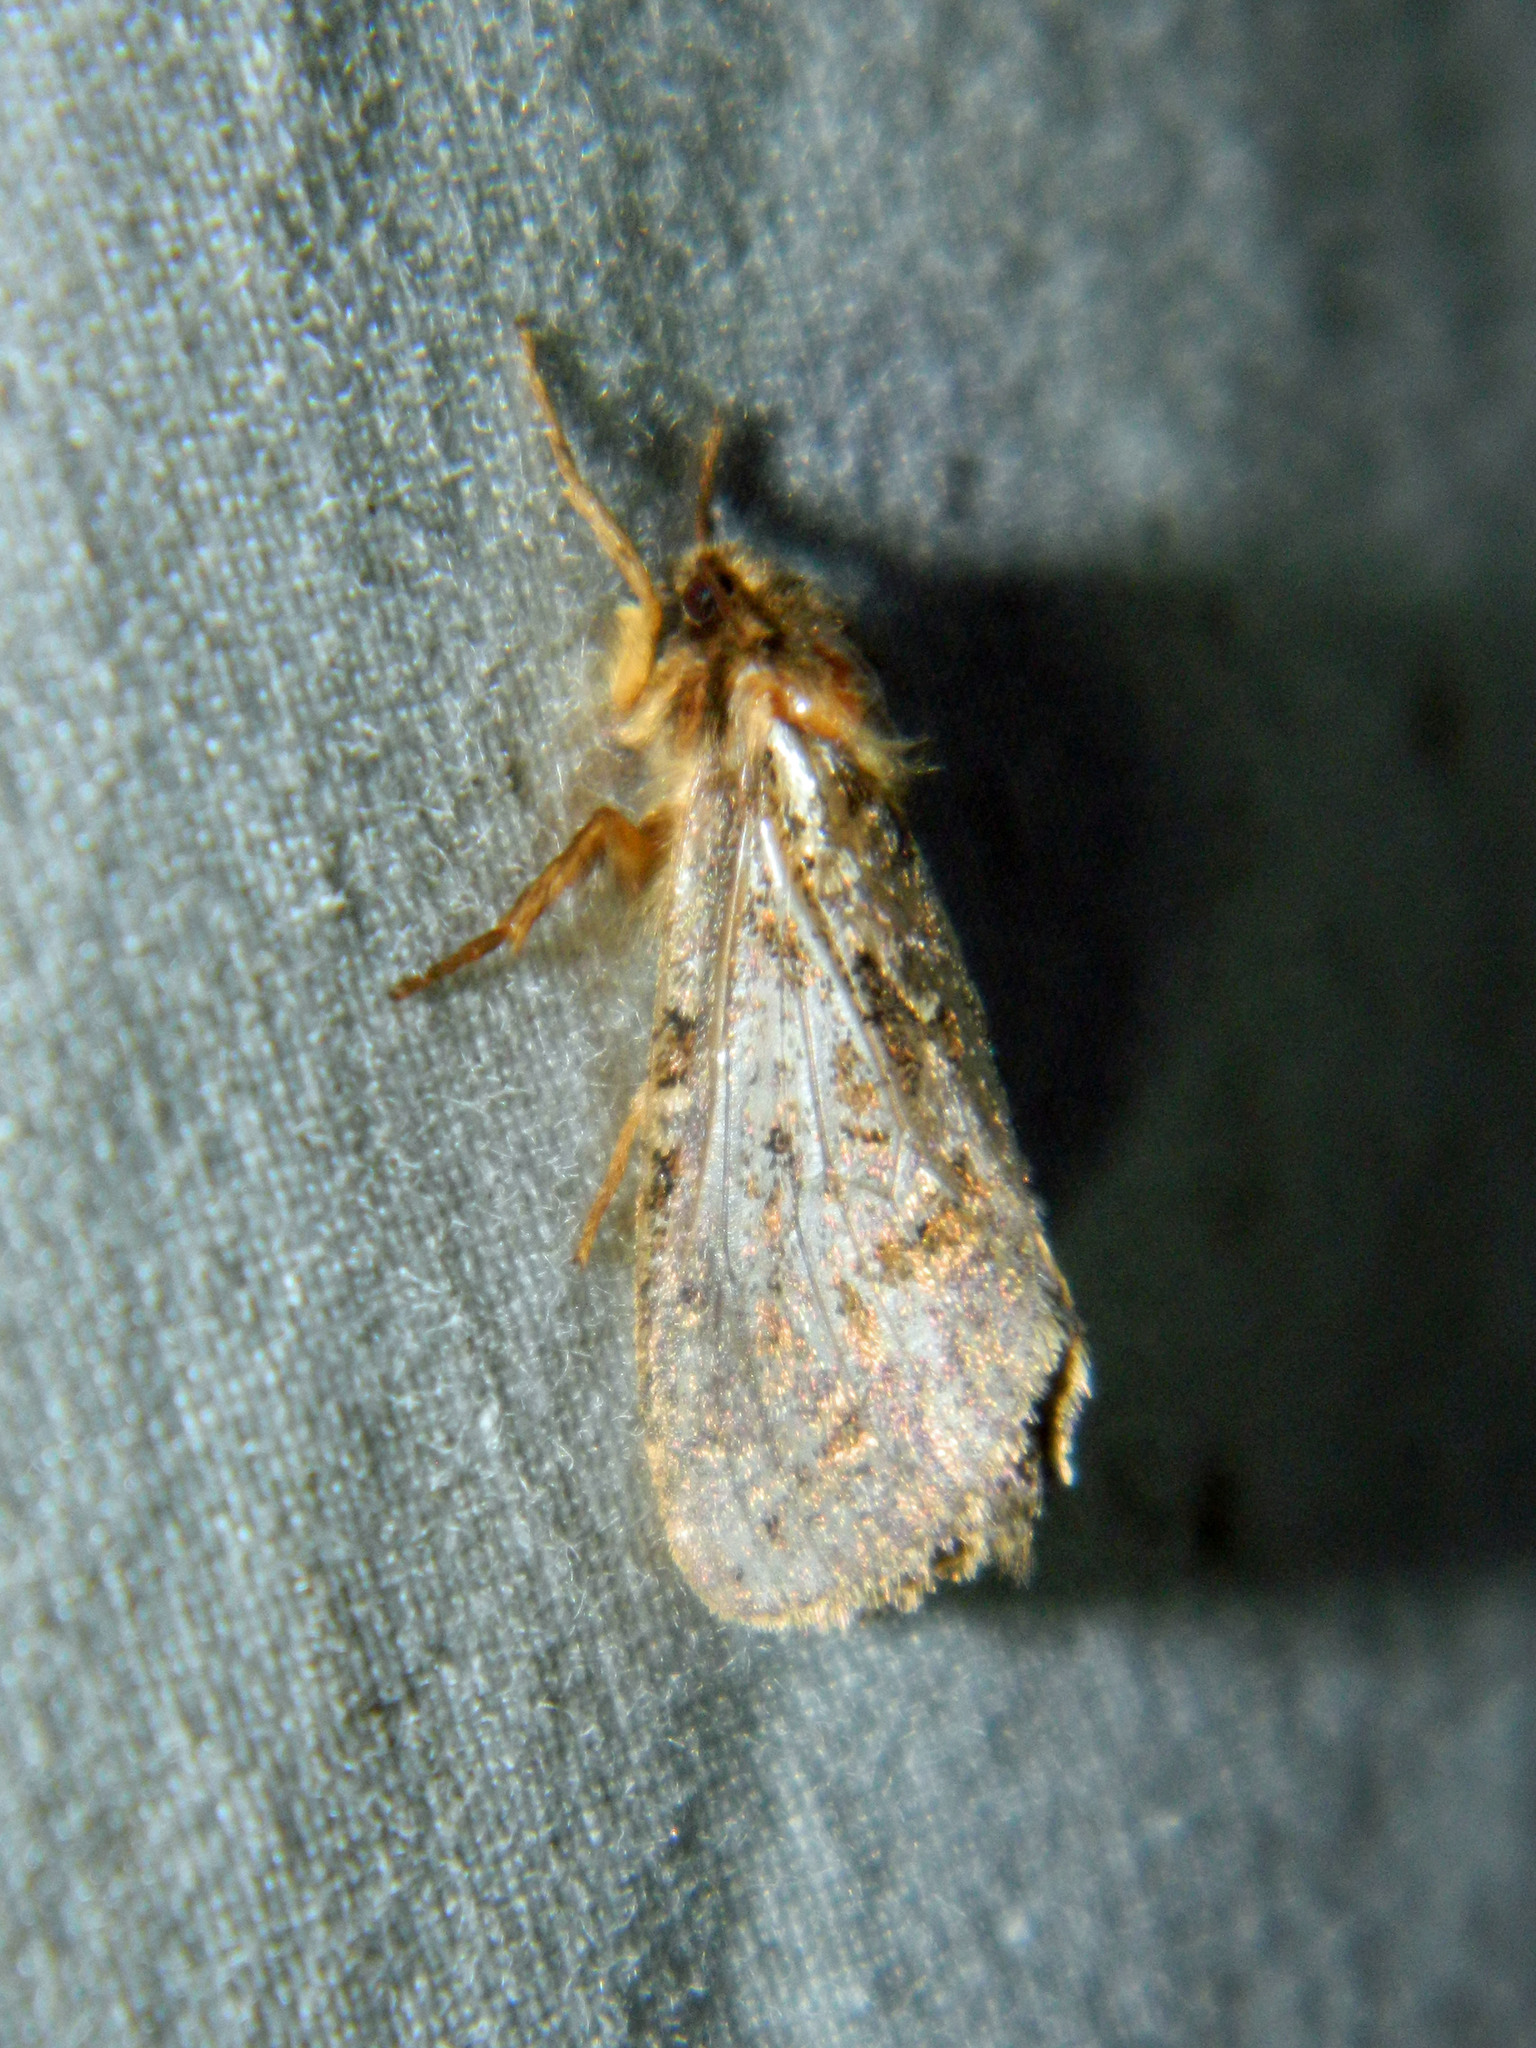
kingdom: Animalia
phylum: Arthropoda
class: Insecta
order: Lepidoptera
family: Hepialidae
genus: Korscheltellus
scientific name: Korscheltellus gracilis
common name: Conifer swift moth
